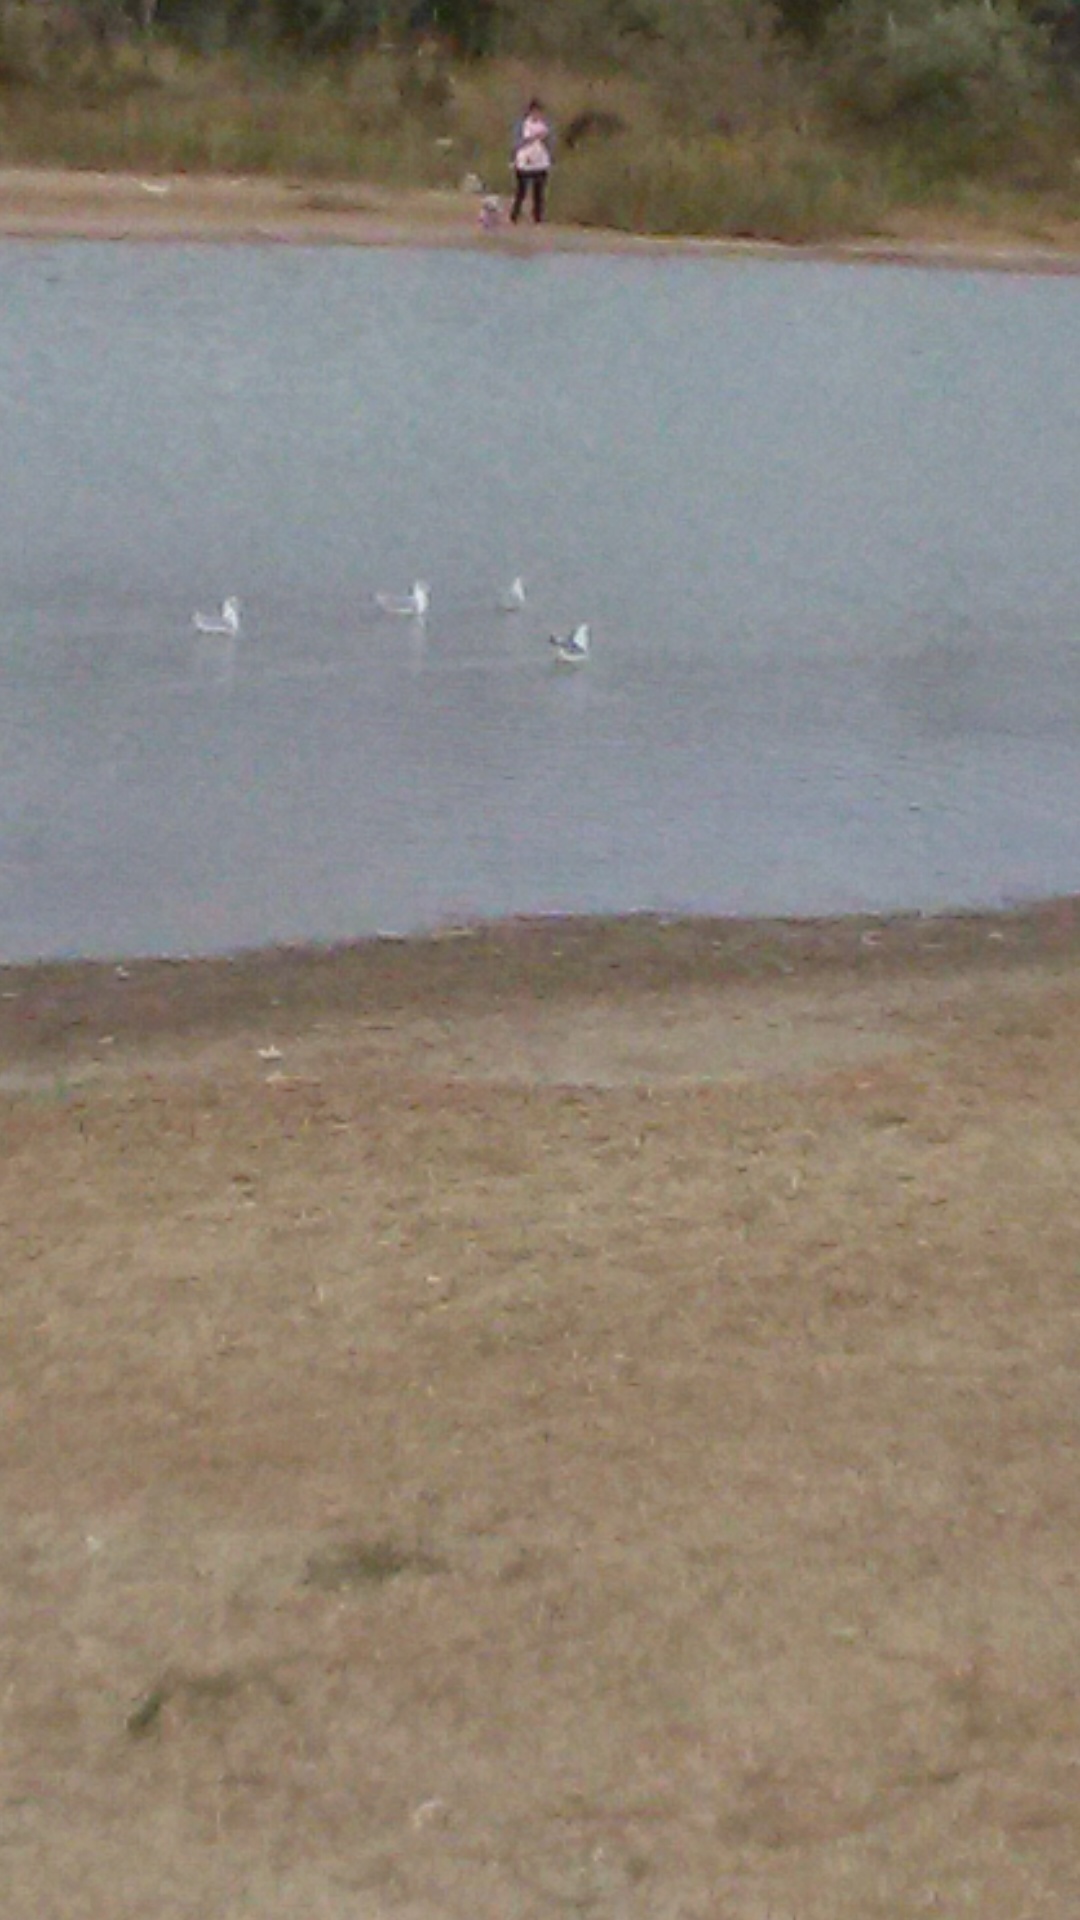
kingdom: Animalia
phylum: Chordata
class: Aves
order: Charadriiformes
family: Laridae
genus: Chroicocephalus
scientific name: Chroicocephalus ridibundus
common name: Black-headed gull
